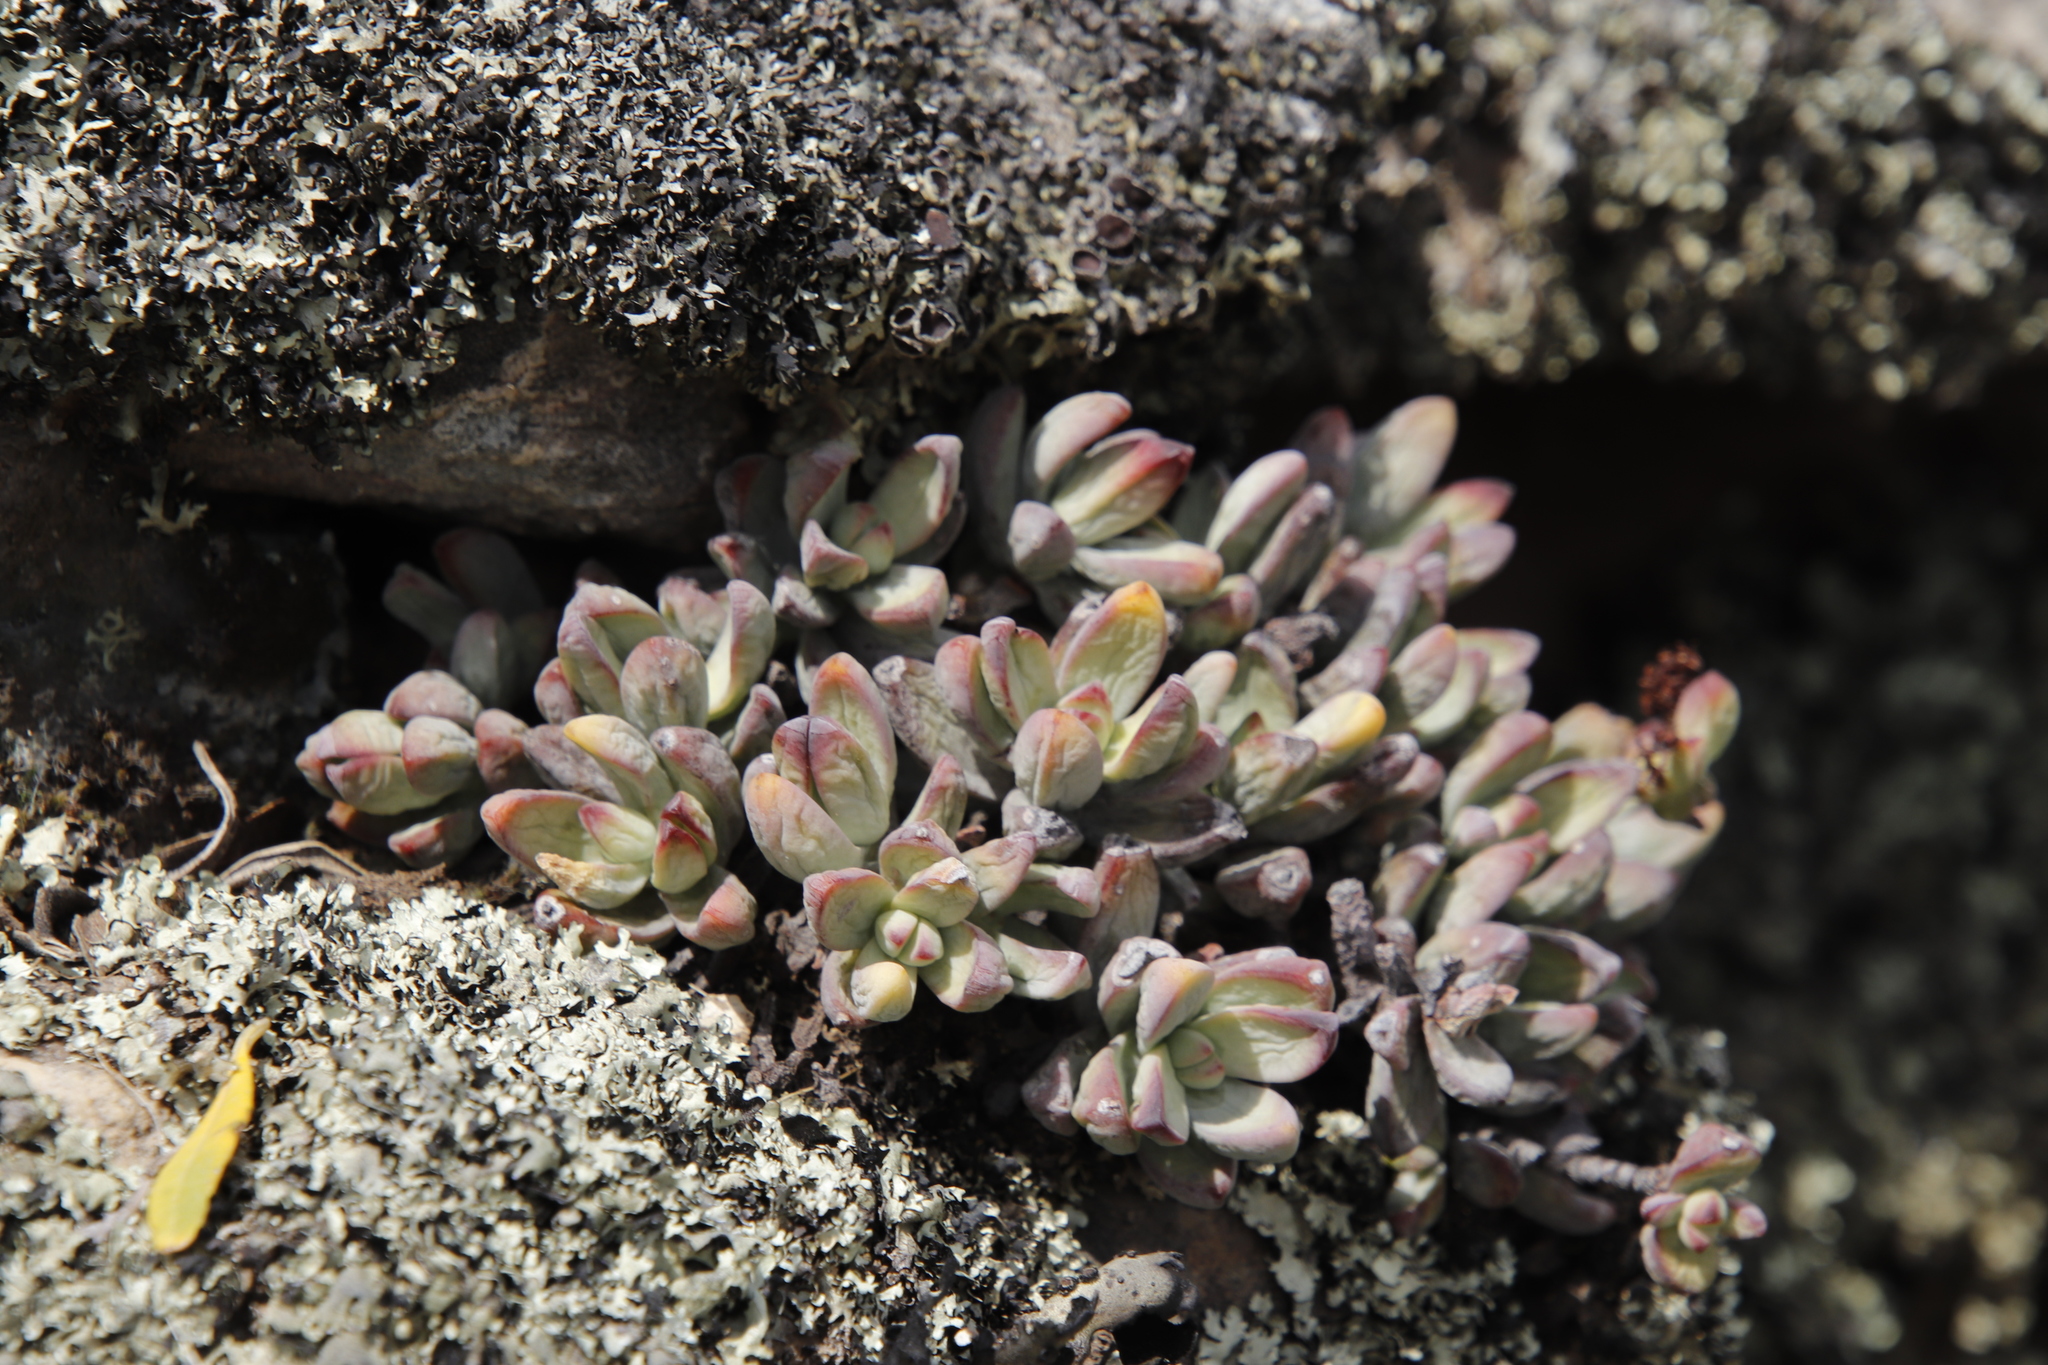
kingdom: Plantae
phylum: Tracheophyta
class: Magnoliopsida
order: Saxifragales
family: Crassulaceae
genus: Crassula
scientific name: Crassula brevifolia
